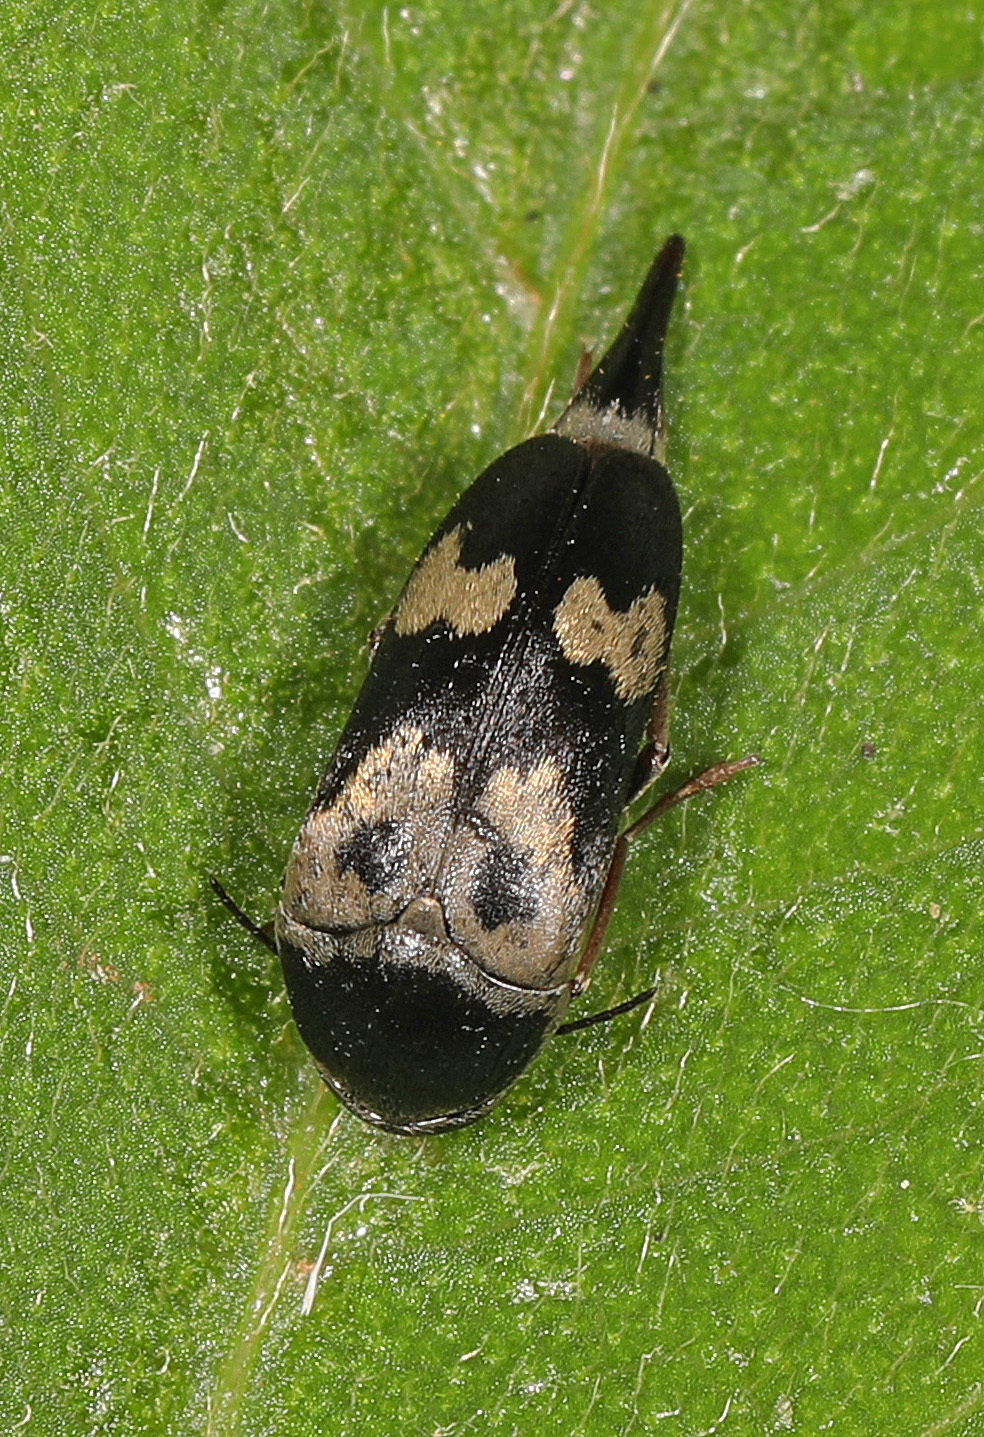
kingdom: Animalia
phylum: Arthropoda
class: Insecta
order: Coleoptera
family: Mordellidae
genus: Glipa
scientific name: Glipa oculata
